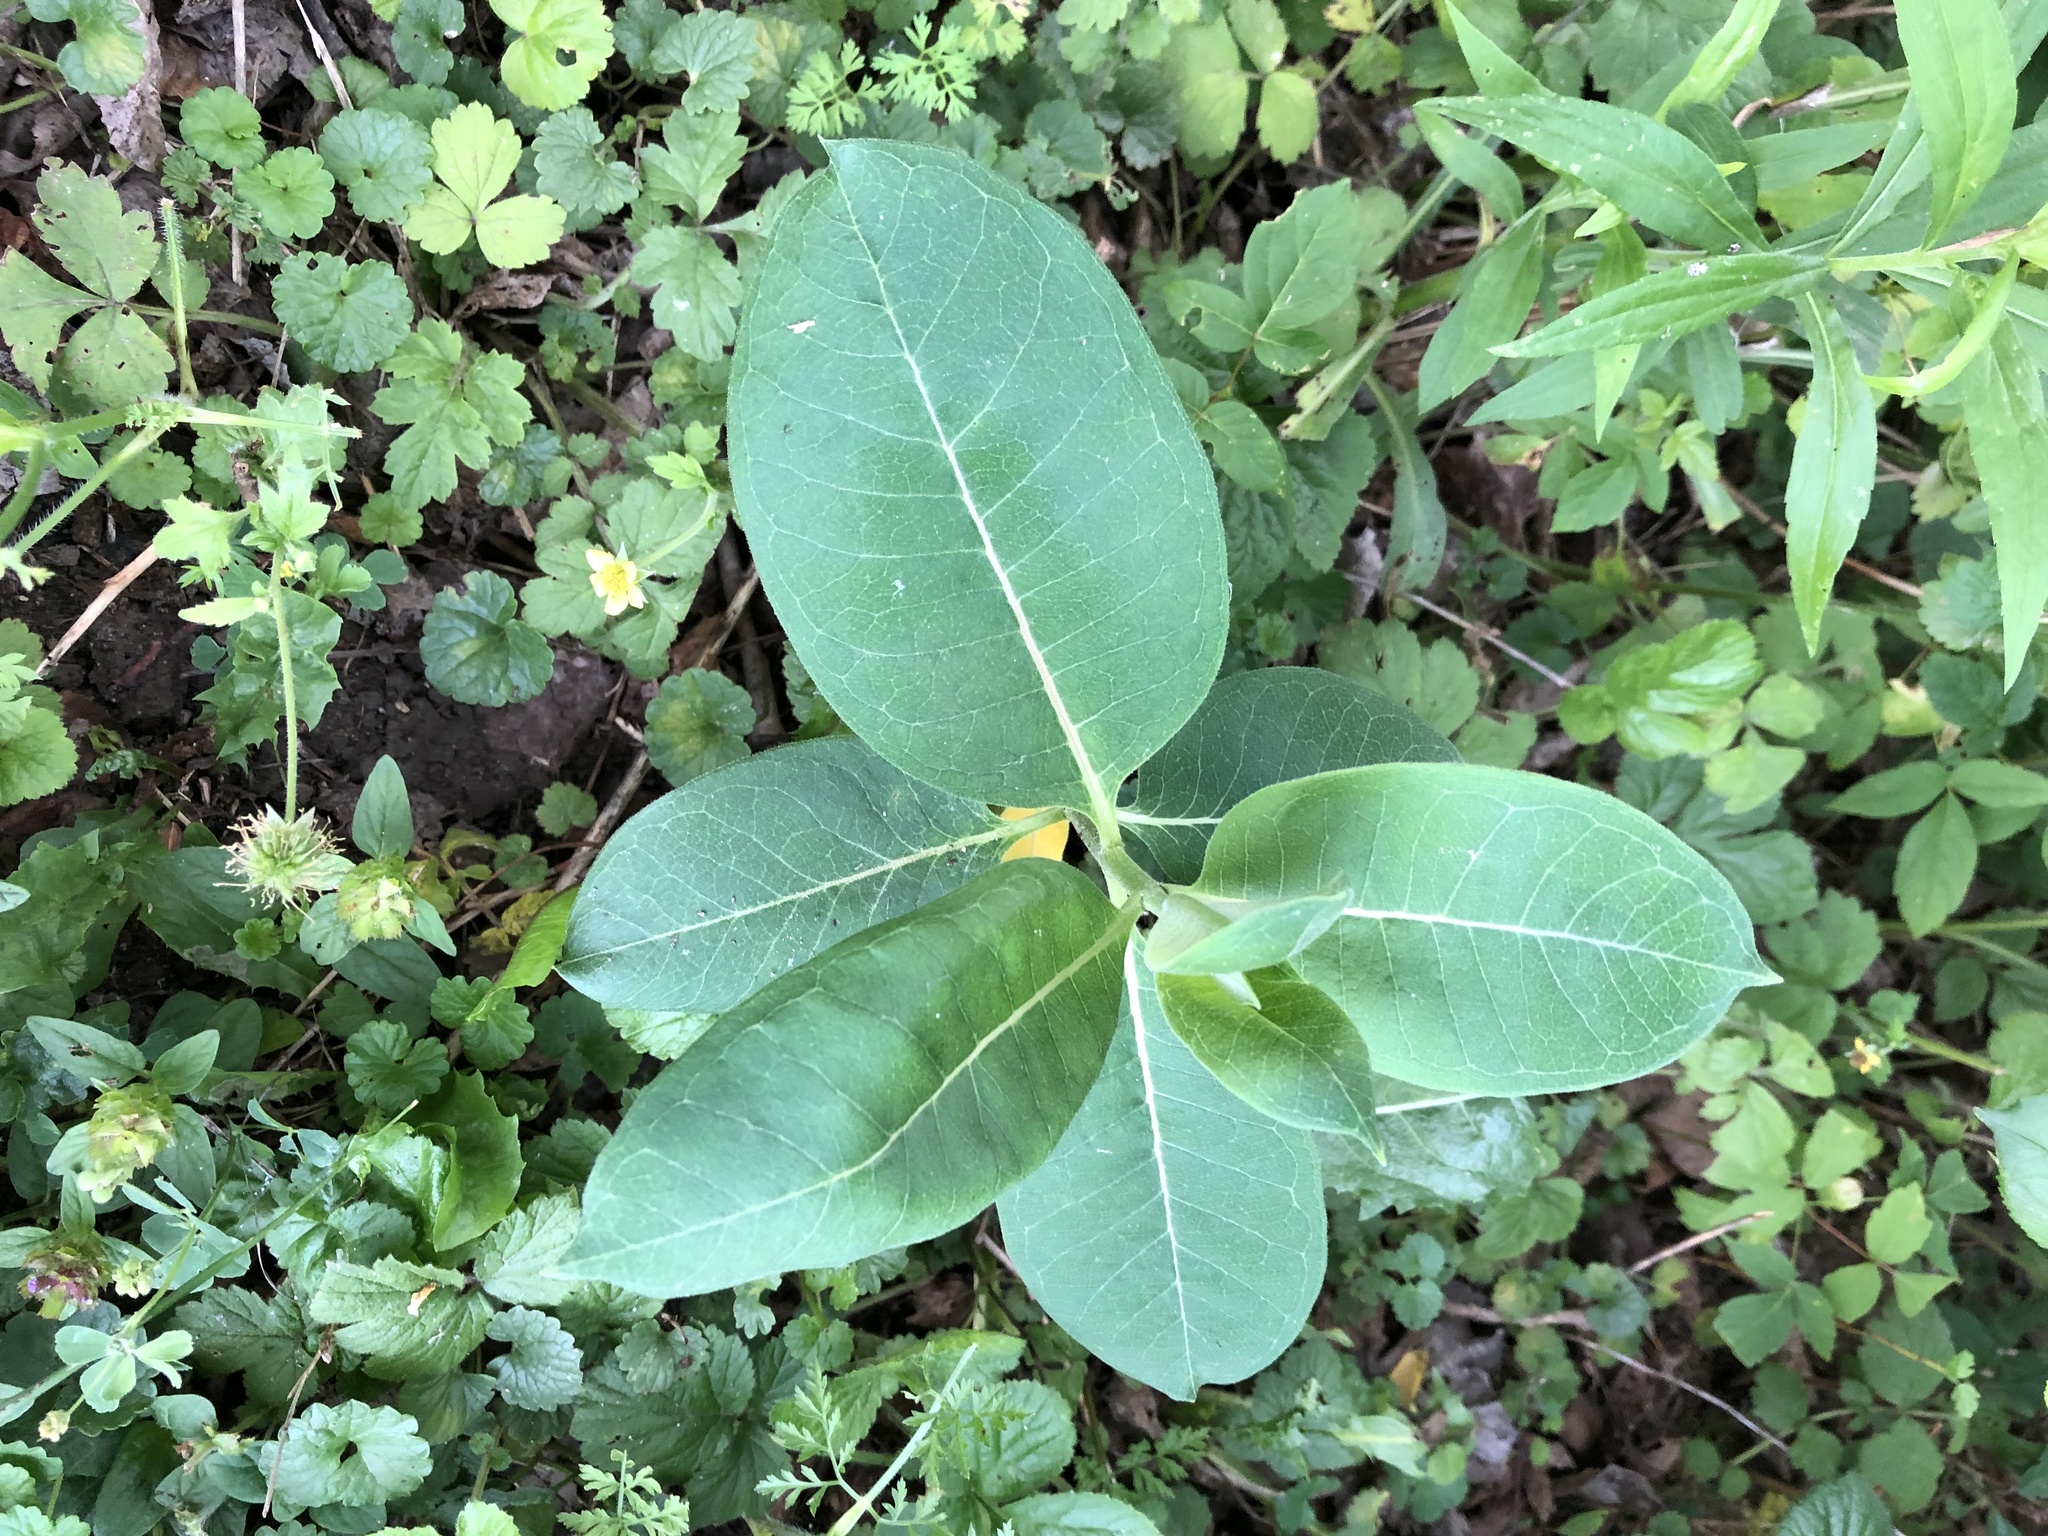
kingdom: Plantae
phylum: Tracheophyta
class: Magnoliopsida
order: Gentianales
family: Apocynaceae
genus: Asclepias
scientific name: Asclepias syriaca
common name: Common milkweed
